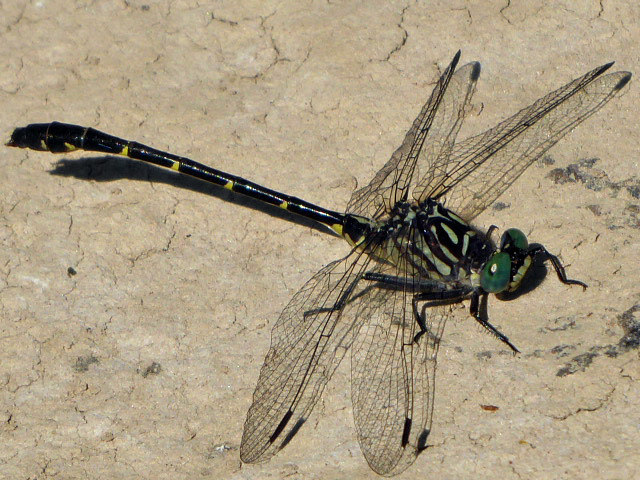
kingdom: Animalia
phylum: Arthropoda
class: Insecta
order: Odonata
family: Gomphidae
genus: Stylogomphus
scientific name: Stylogomphus albistylus
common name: Eastern least clubtail
